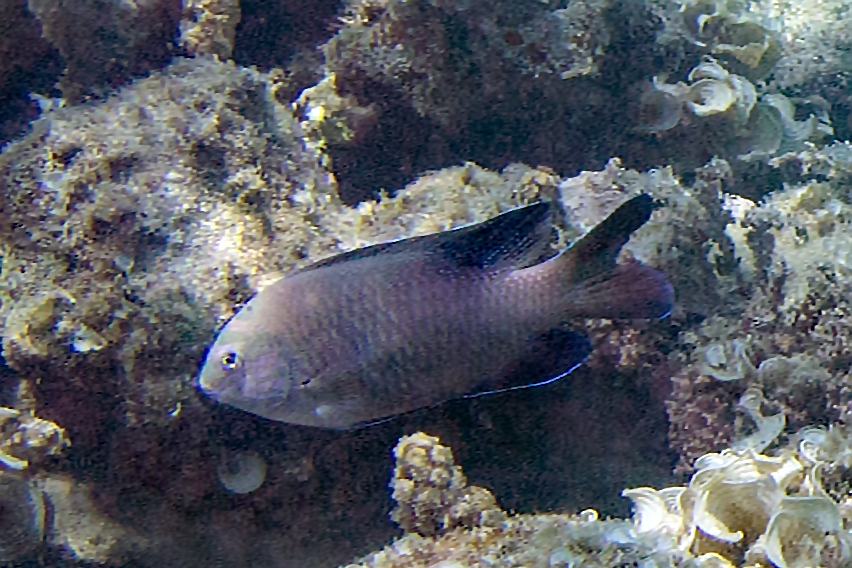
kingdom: Animalia
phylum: Chordata
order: Perciformes
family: Pomacentridae
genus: Dischistodus
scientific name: Dischistodus perspicillatus
